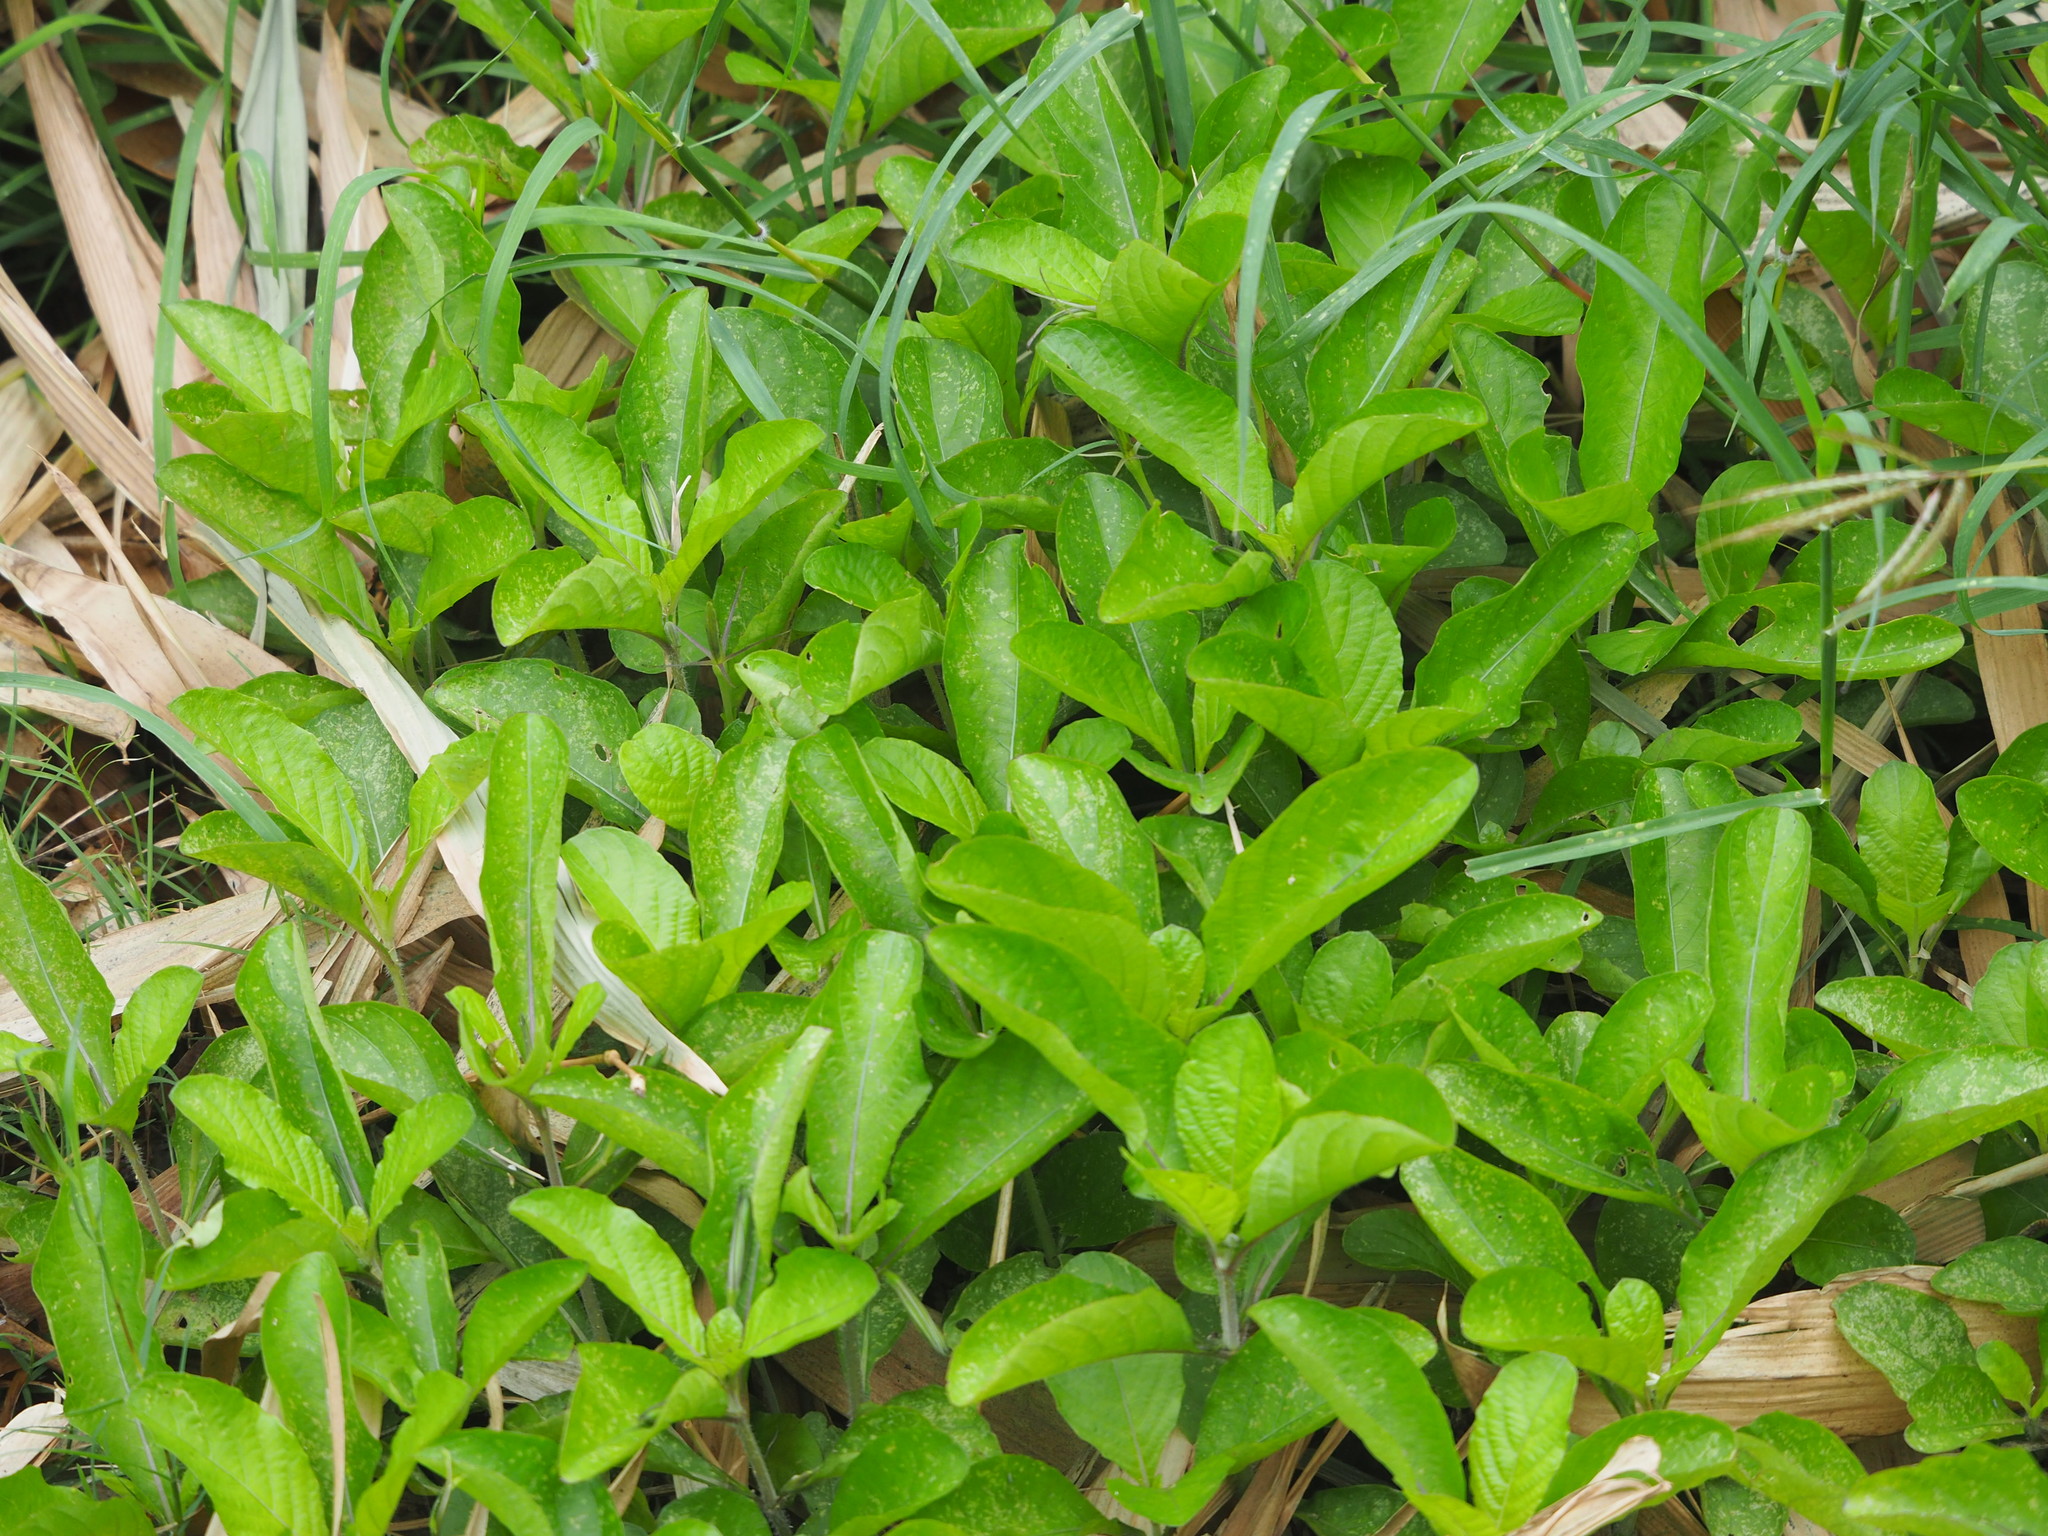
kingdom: Plantae
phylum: Tracheophyta
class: Magnoliopsida
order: Lamiales
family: Acanthaceae
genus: Ruellia
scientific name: Ruellia tuberosa
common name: Devil's bit
